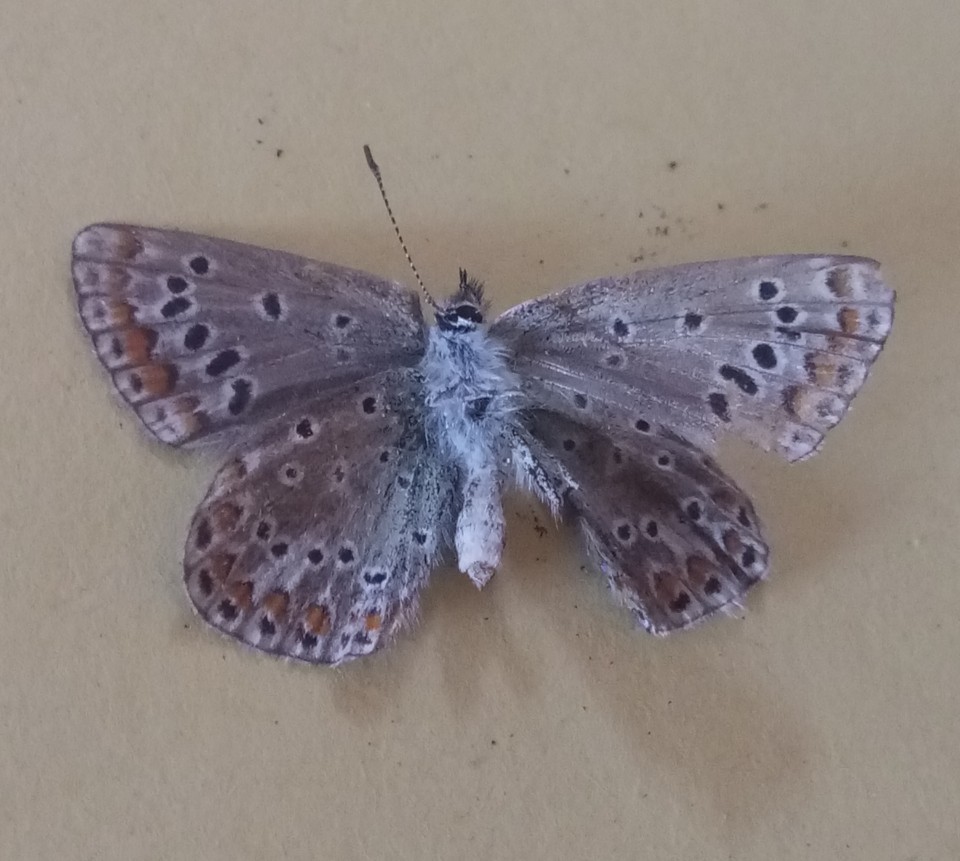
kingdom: Animalia
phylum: Arthropoda
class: Insecta
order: Lepidoptera
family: Lycaenidae
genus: Polyommatus
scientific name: Polyommatus celina
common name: Austaut's blue
